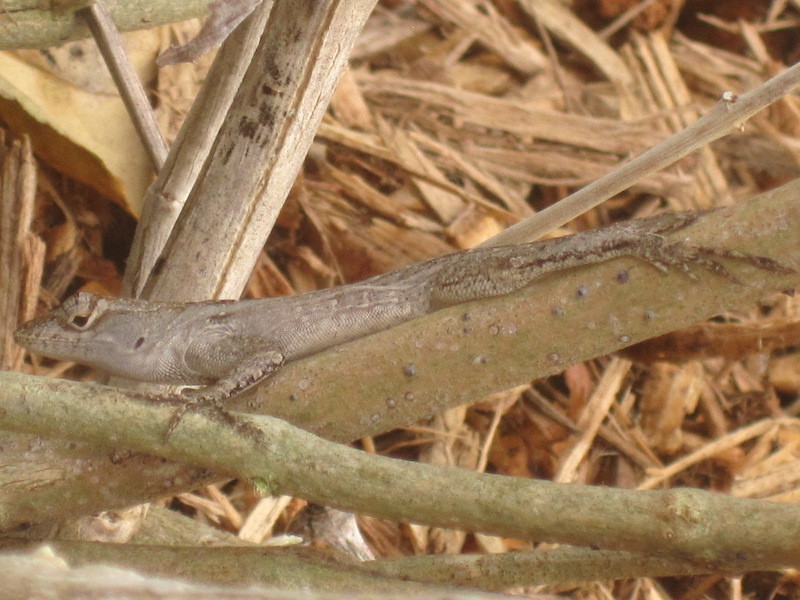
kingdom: Animalia
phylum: Chordata
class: Squamata
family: Dactyloidae
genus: Anolis
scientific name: Anolis sagrei
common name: Brown anole
